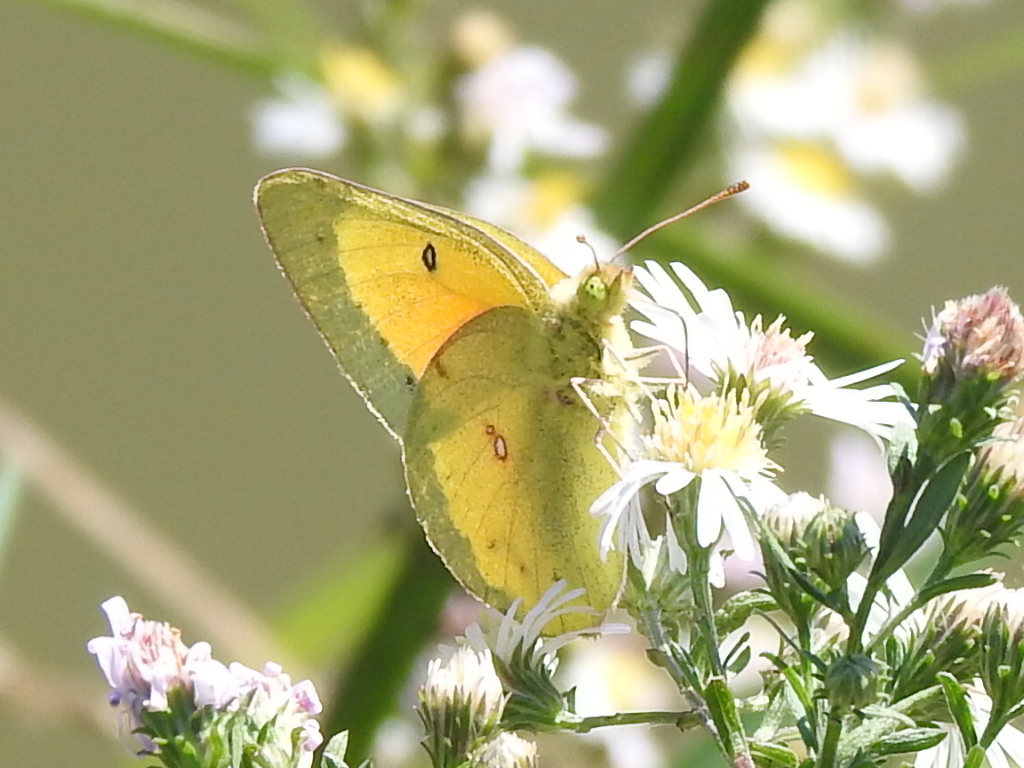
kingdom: Animalia
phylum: Arthropoda
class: Insecta
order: Lepidoptera
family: Pieridae
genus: Colias
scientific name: Colias eurytheme
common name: Alfalfa butterfly
